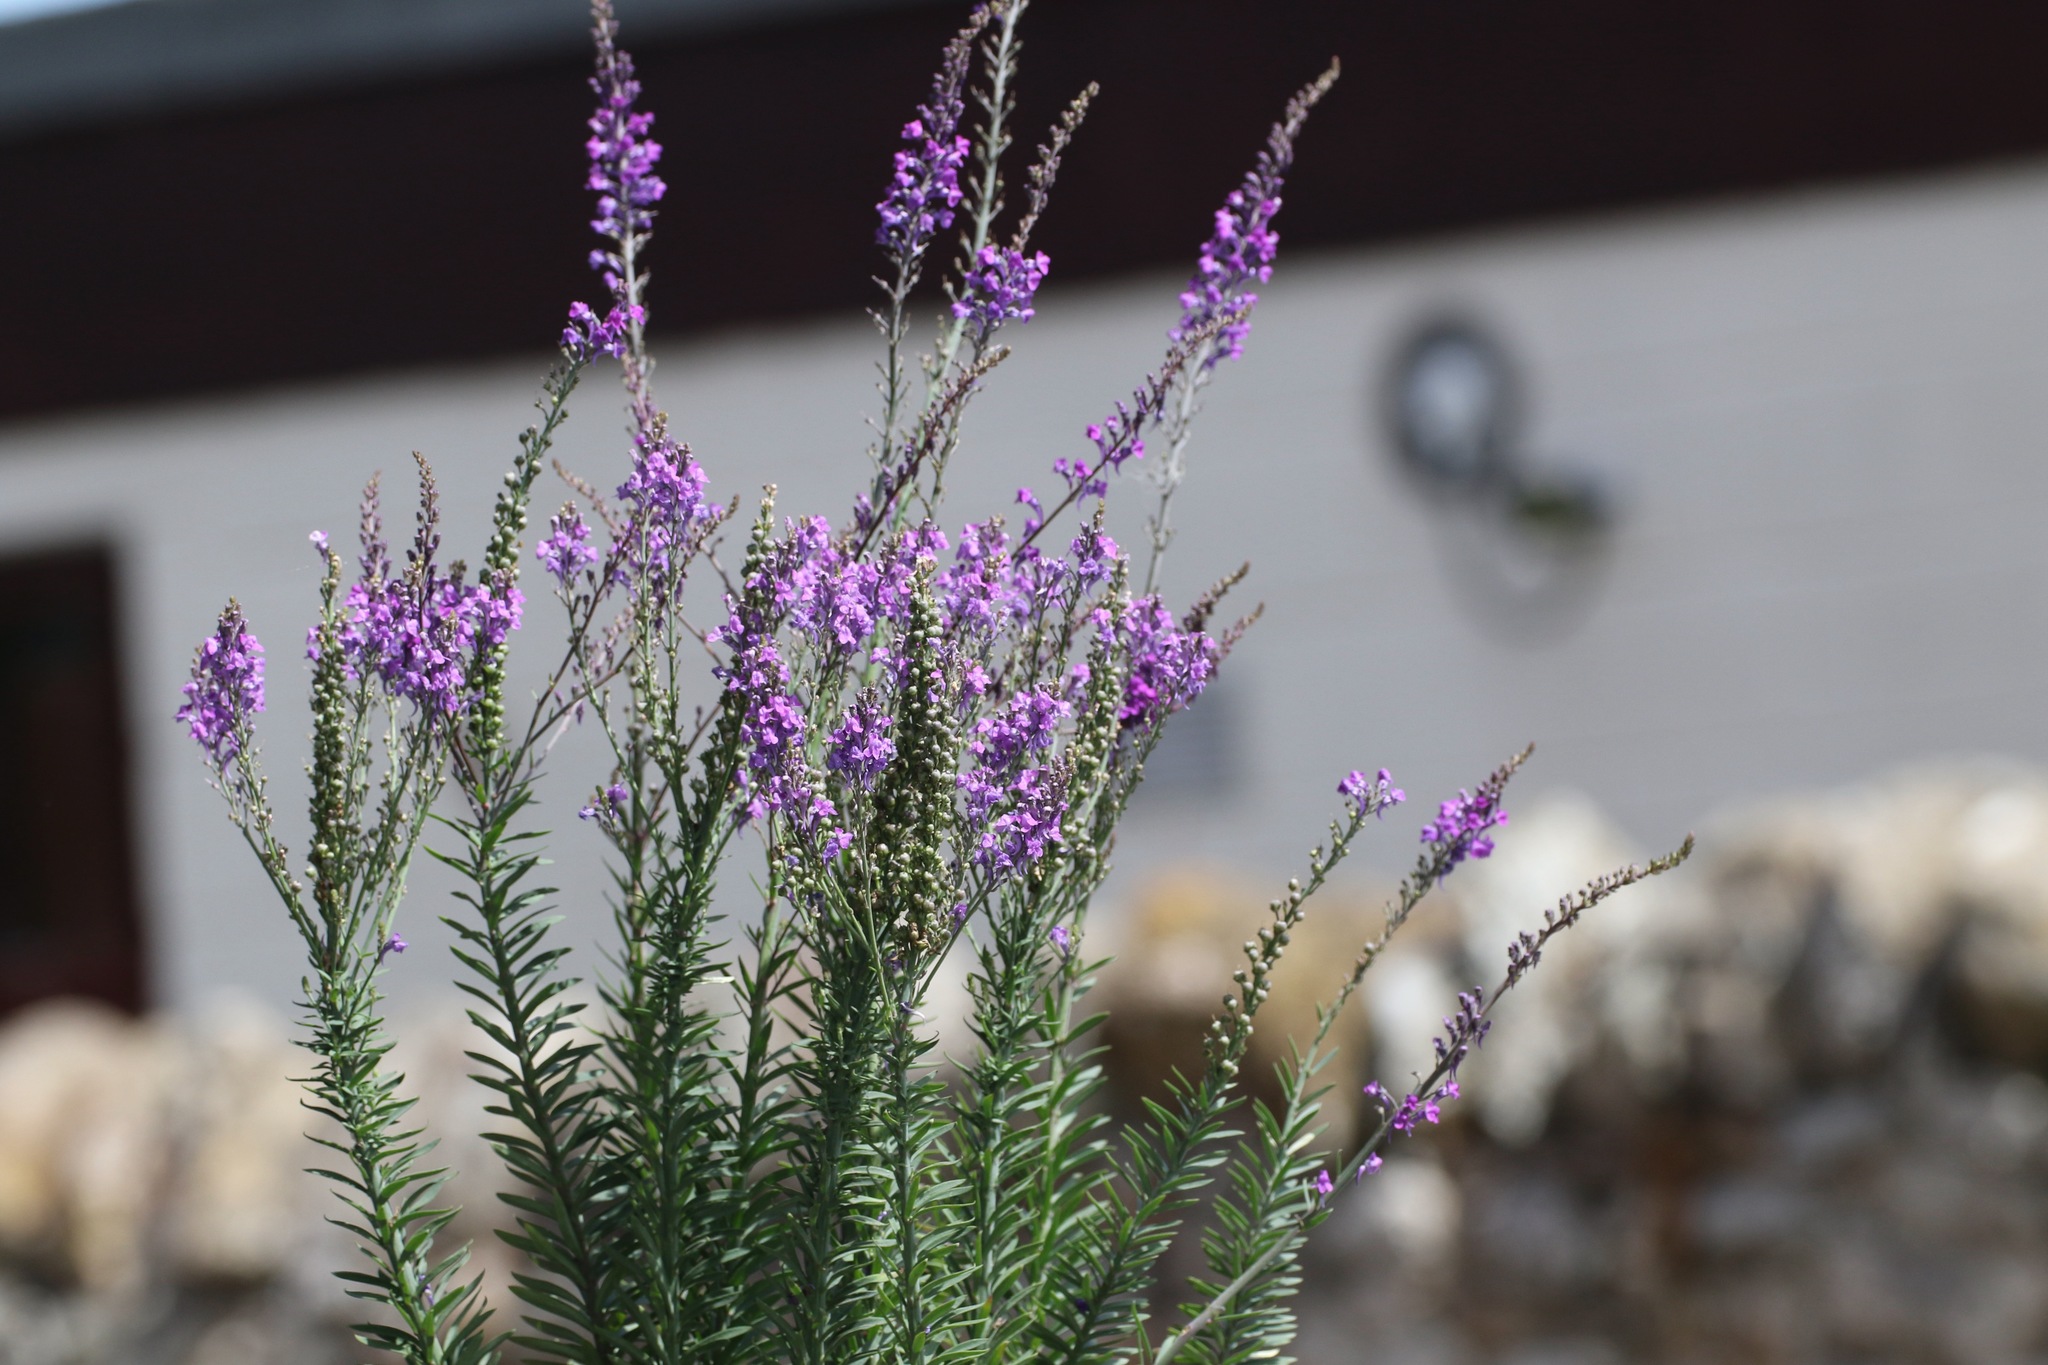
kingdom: Plantae
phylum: Tracheophyta
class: Magnoliopsida
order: Lamiales
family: Plantaginaceae
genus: Linaria
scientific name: Linaria purpurea
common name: Purple toadflax
